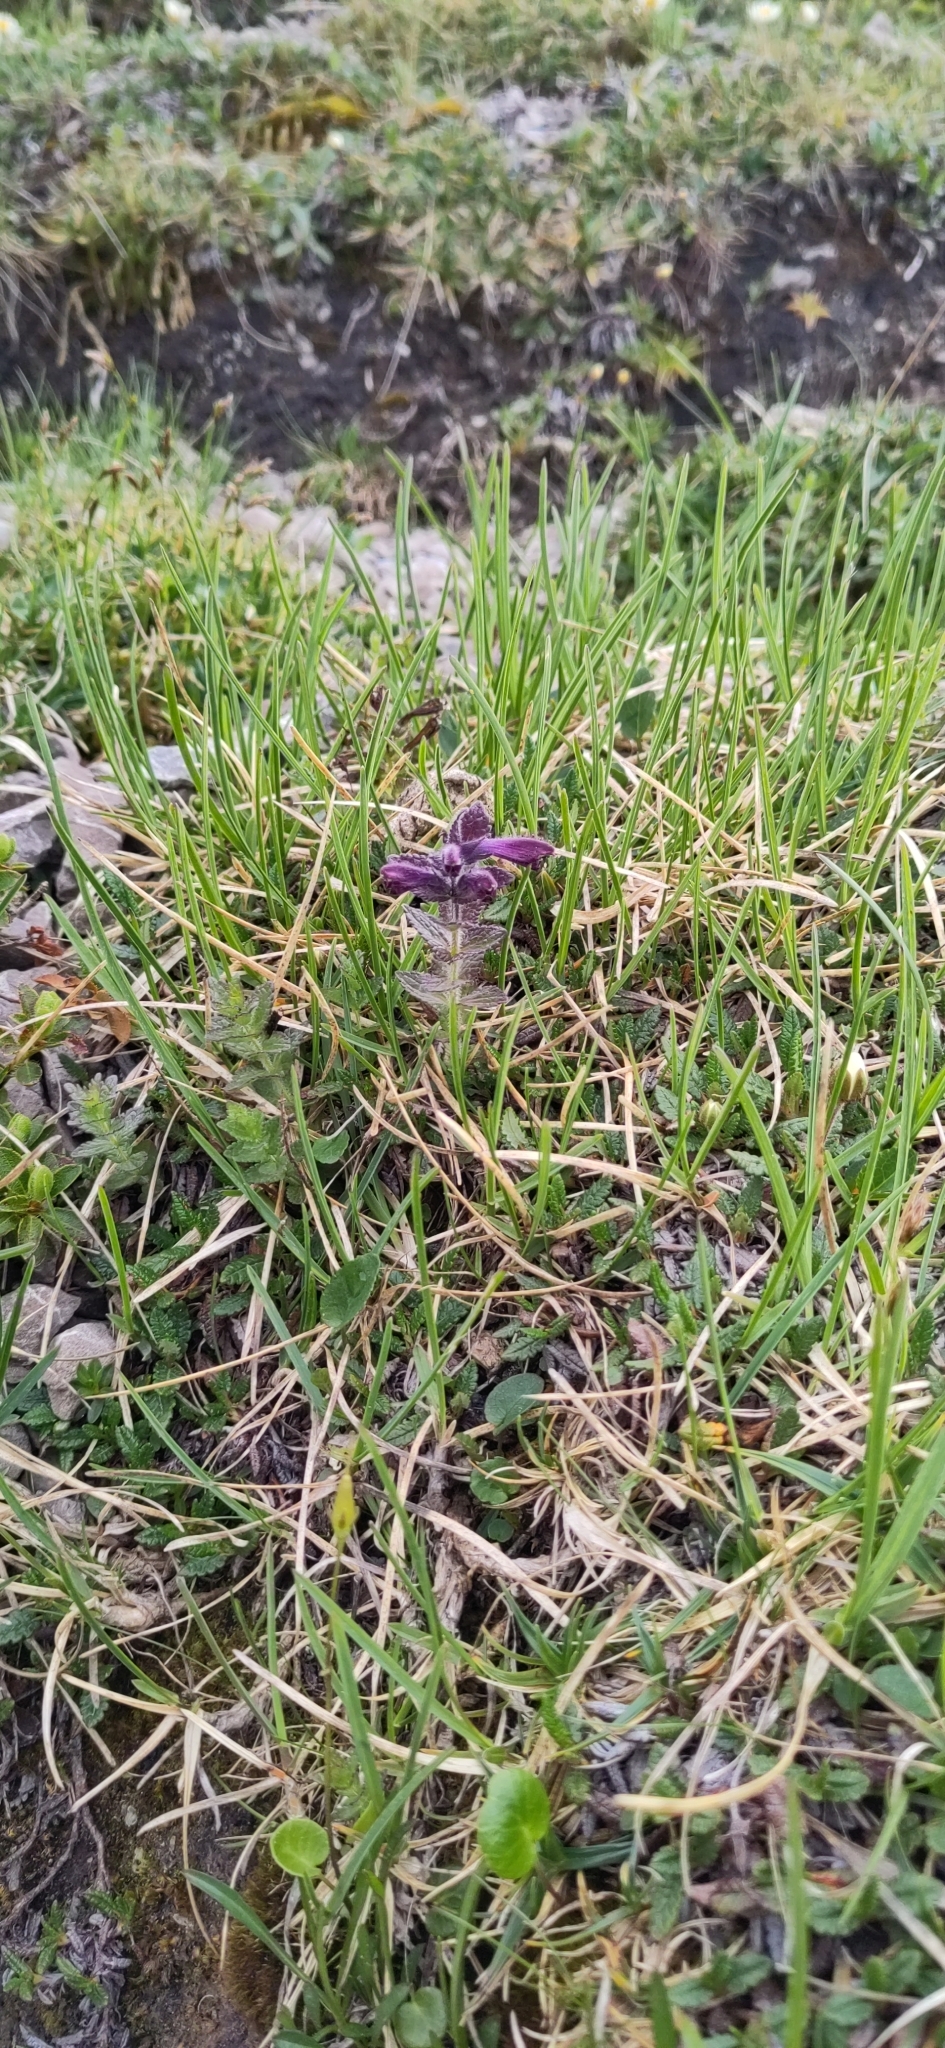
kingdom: Plantae
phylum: Tracheophyta
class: Magnoliopsida
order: Lamiales
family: Orobanchaceae
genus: Bartsia
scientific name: Bartsia alpina
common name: Alpine bartsia
